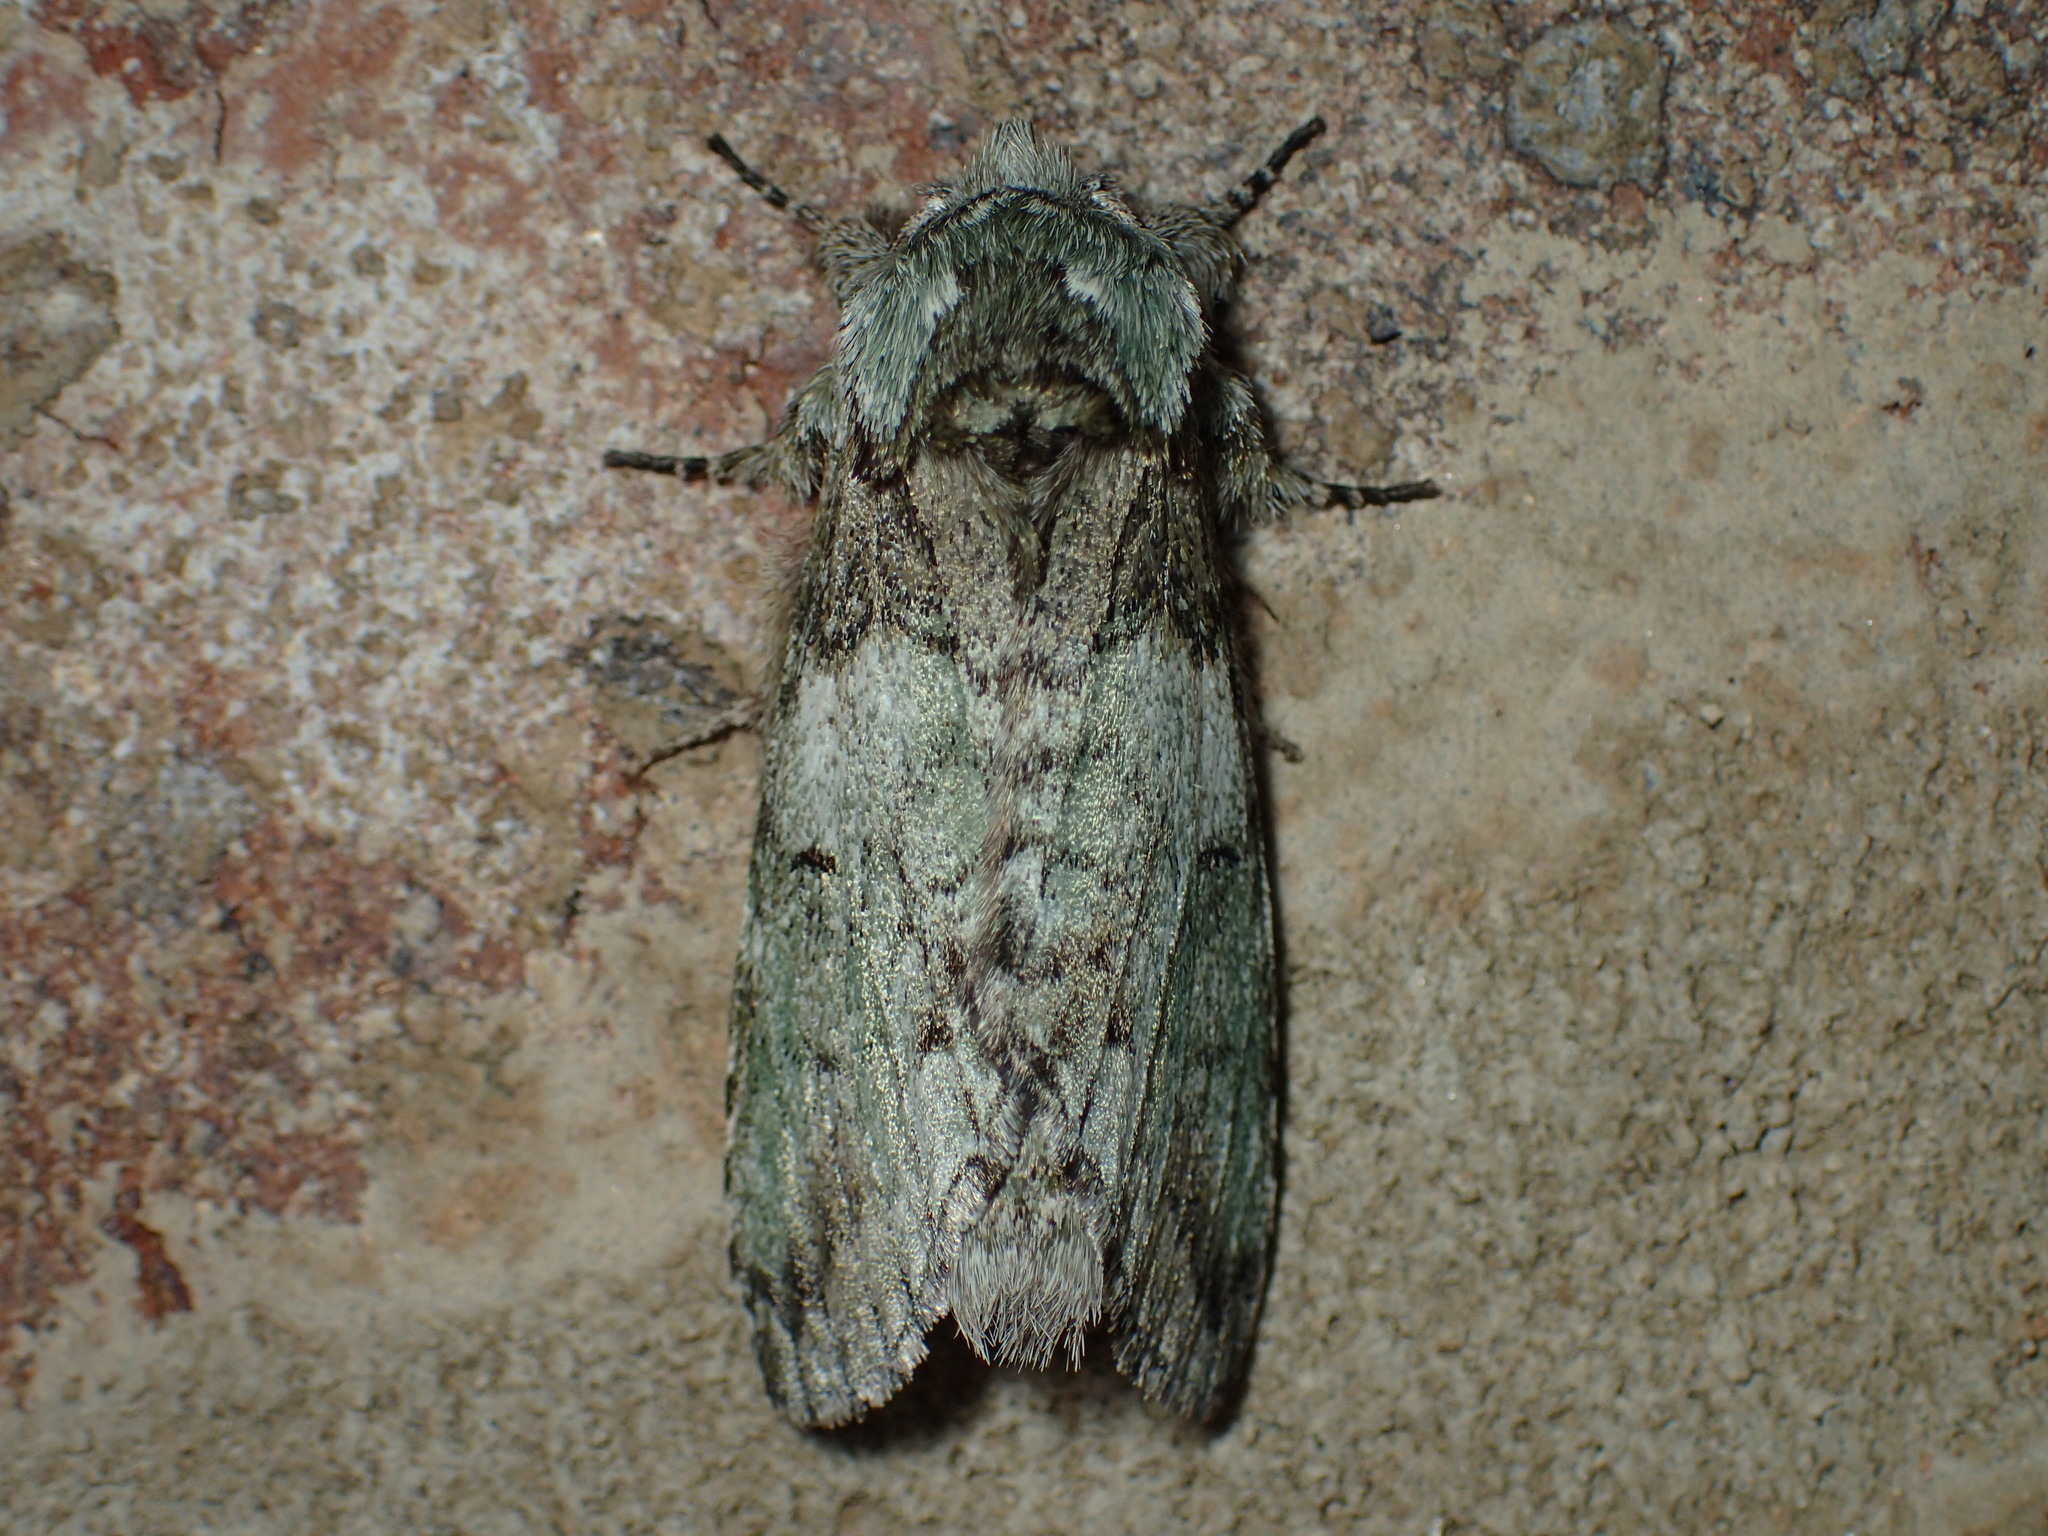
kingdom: Animalia
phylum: Arthropoda
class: Insecta
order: Lepidoptera
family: Notodontidae
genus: Macrurocampa
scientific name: Macrurocampa marthesia
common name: Mottled prominent
